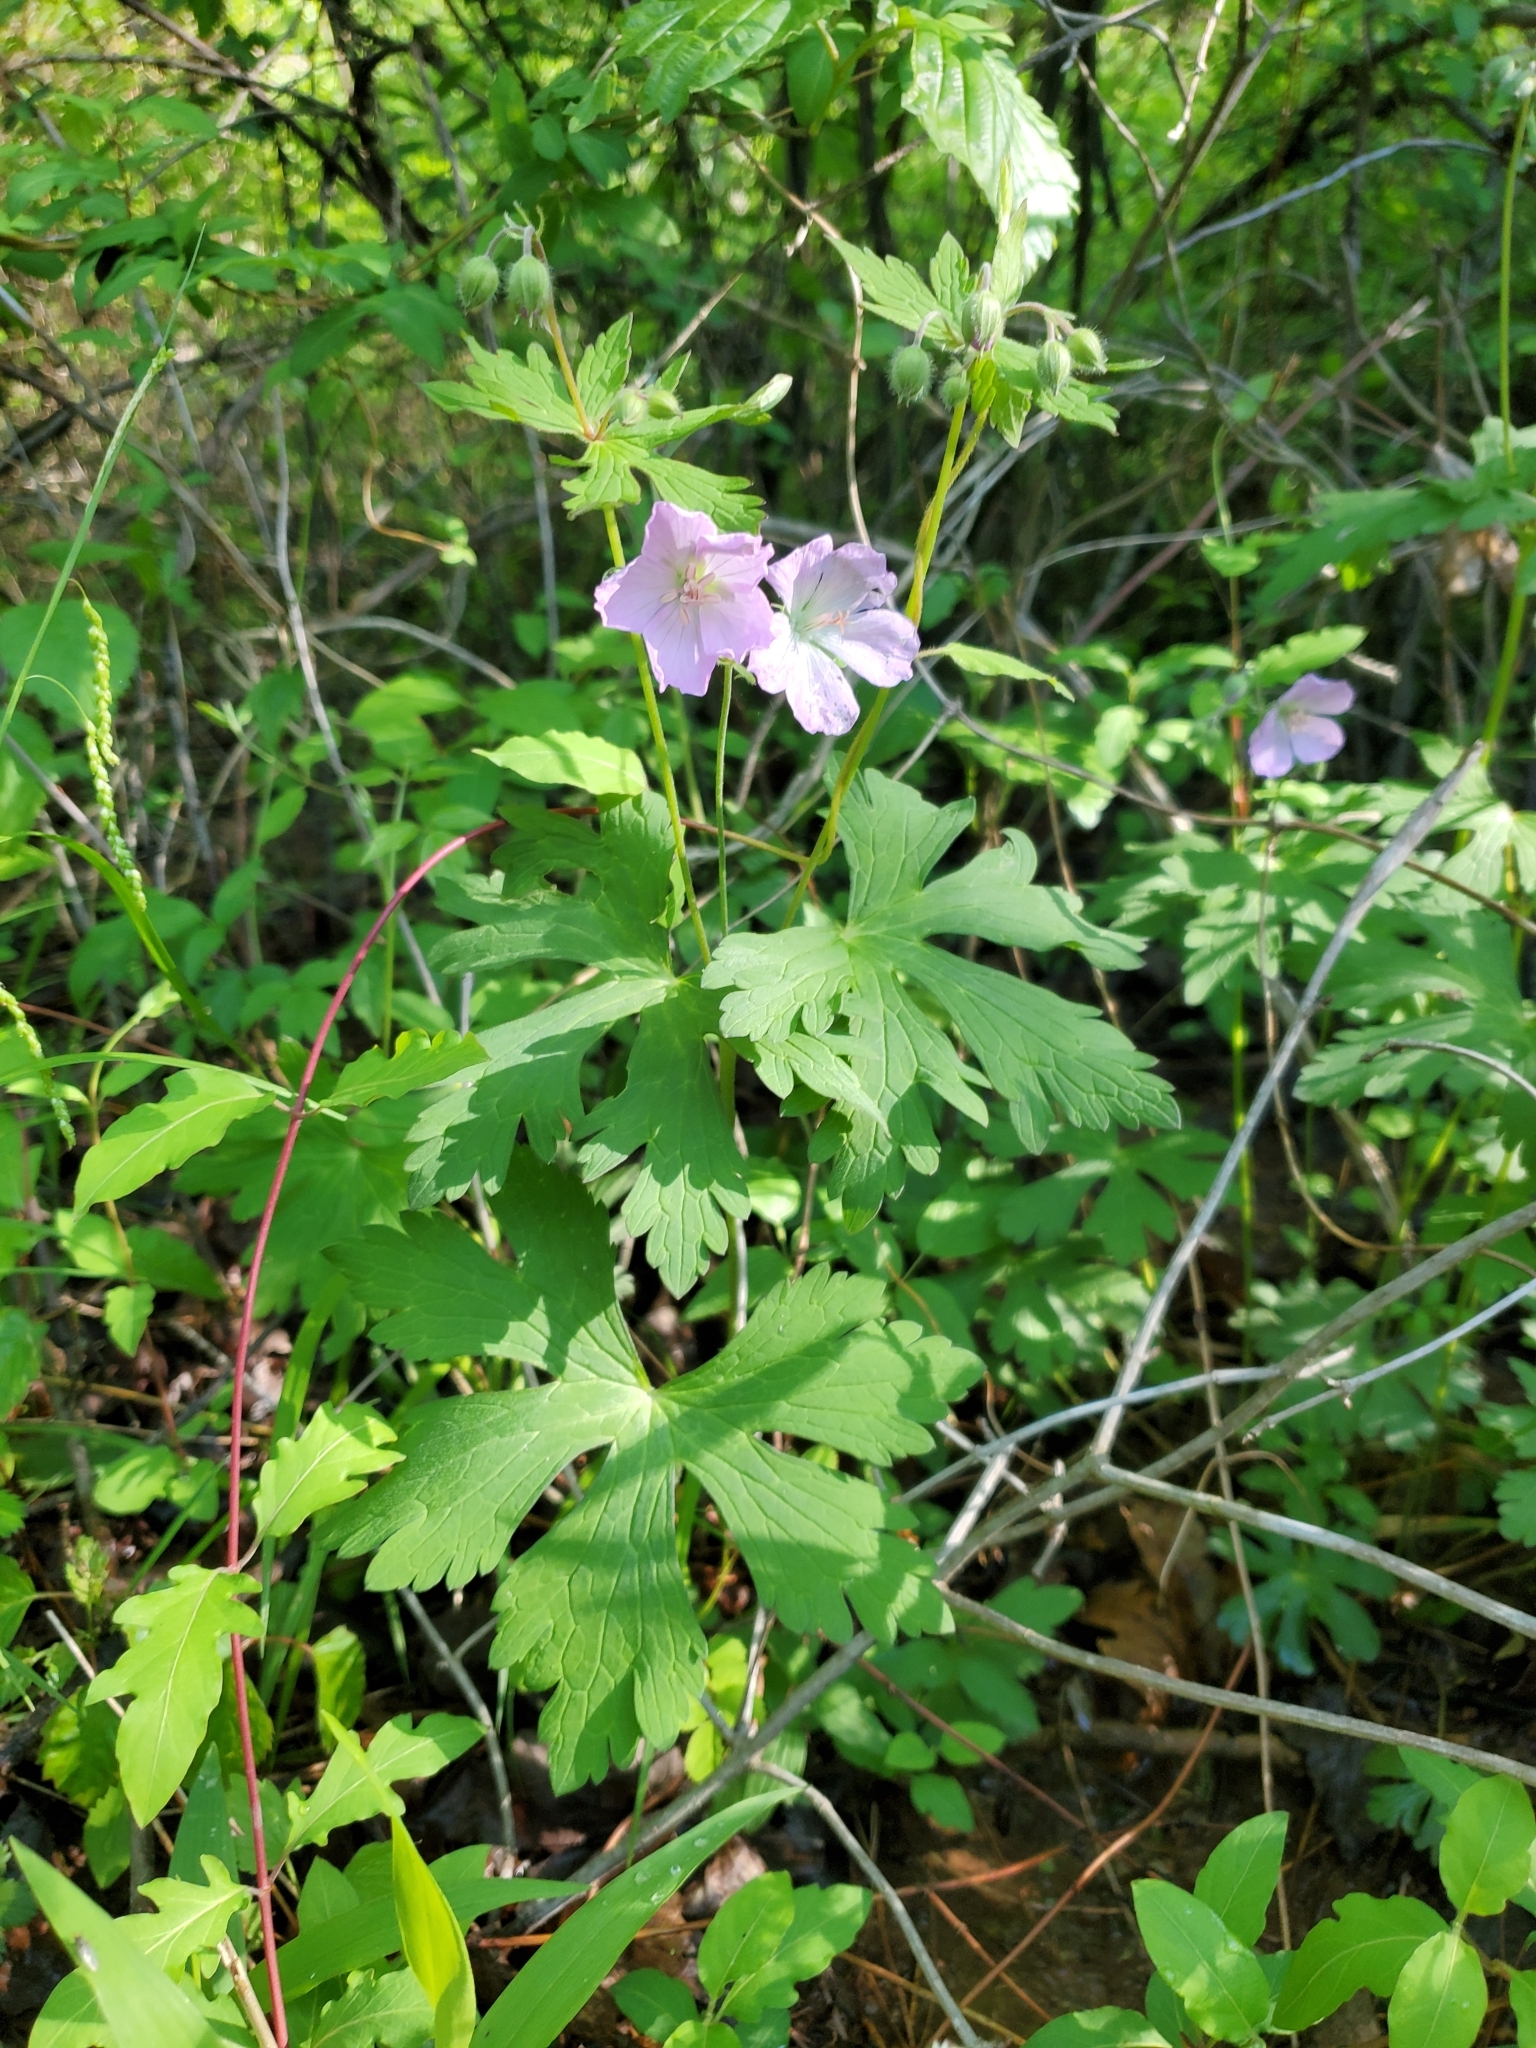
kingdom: Plantae
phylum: Tracheophyta
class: Magnoliopsida
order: Geraniales
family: Geraniaceae
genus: Geranium
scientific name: Geranium maculatum
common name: Spotted geranium
